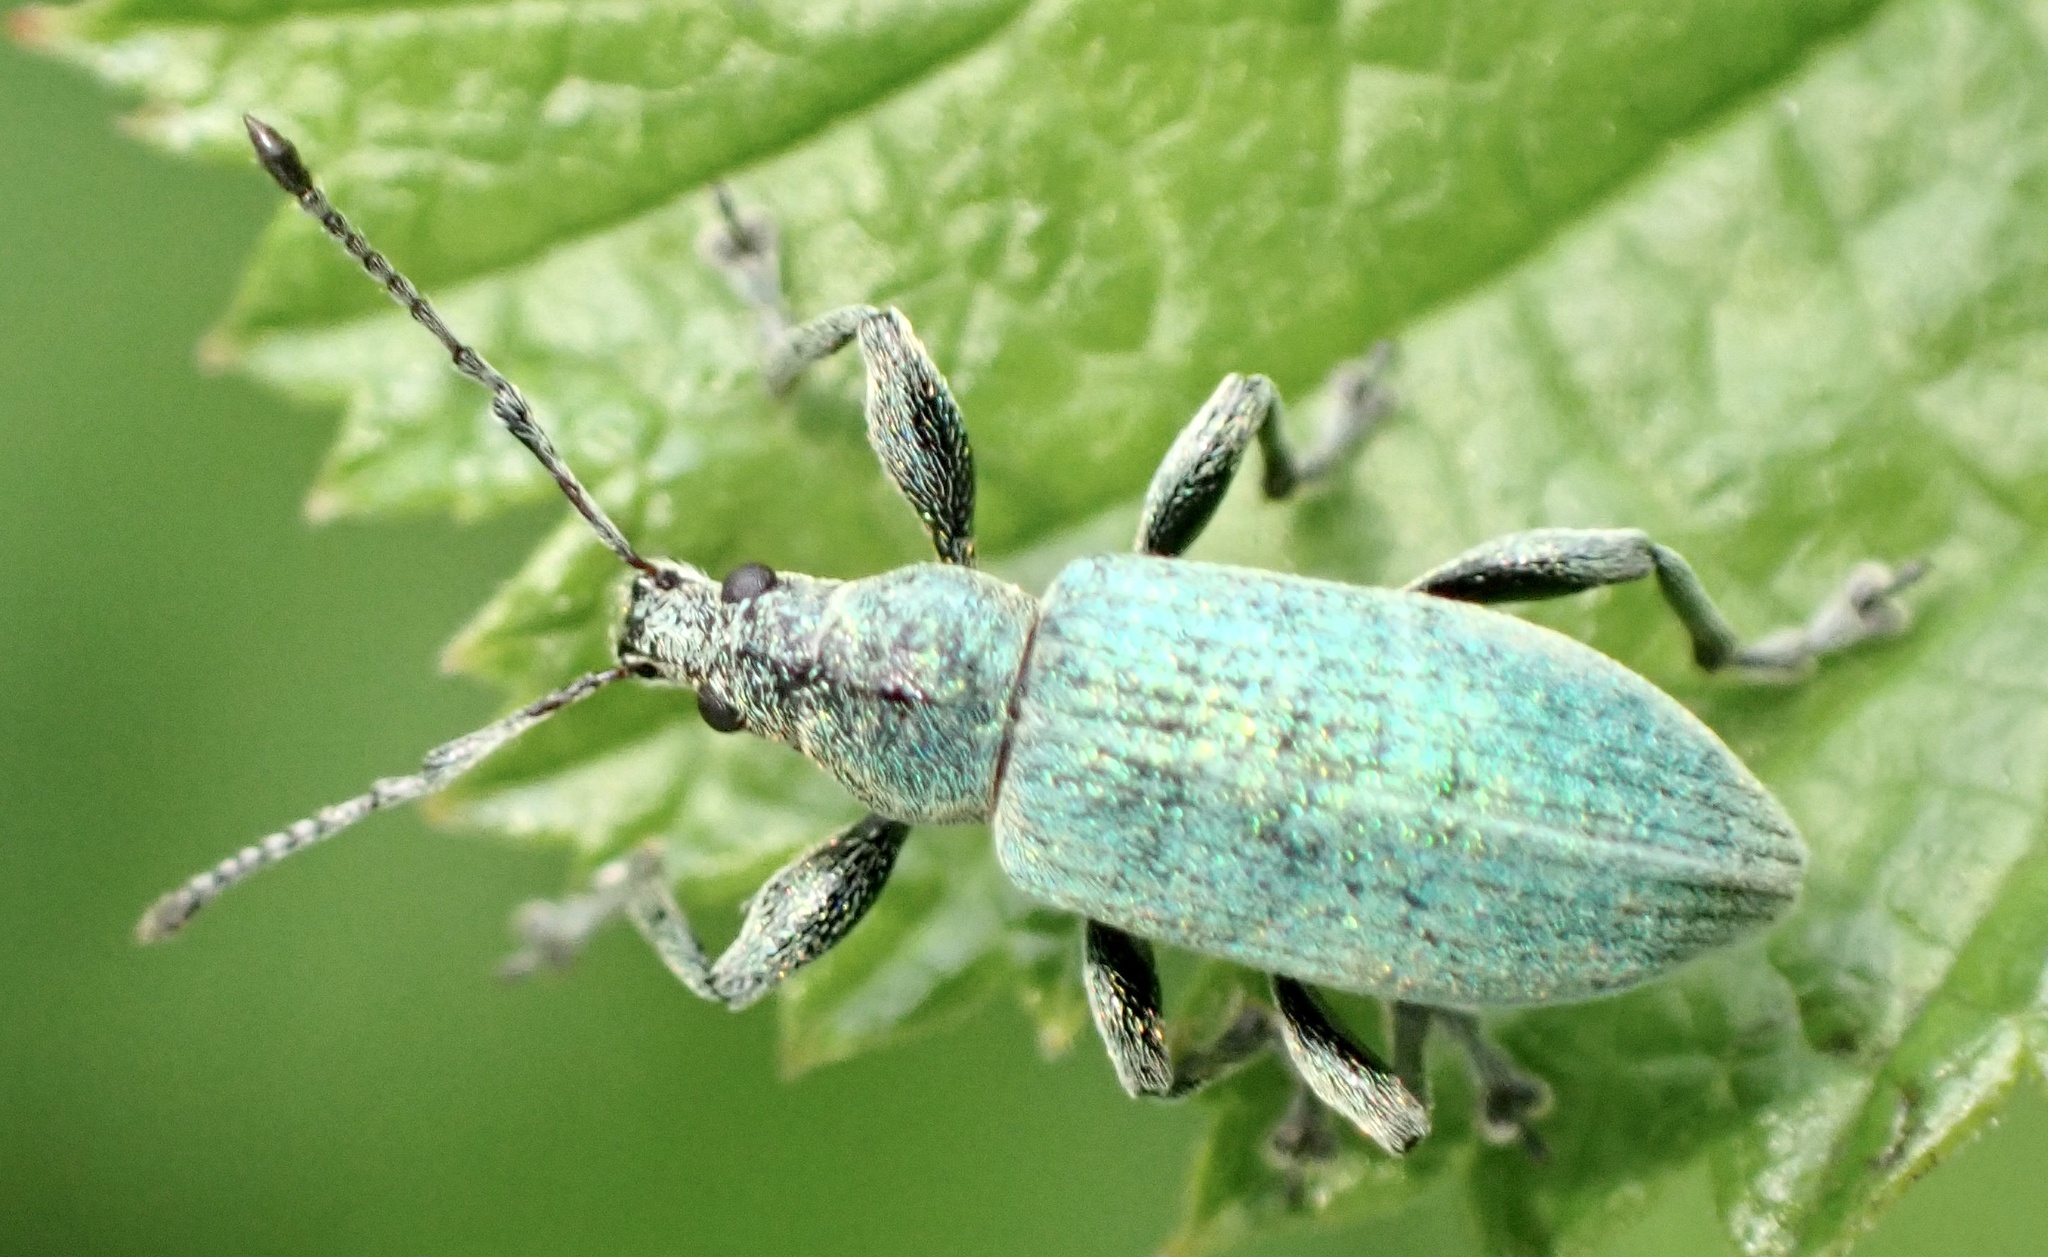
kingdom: Animalia
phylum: Arthropoda
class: Insecta
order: Coleoptera
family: Curculionidae
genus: Phyllobius
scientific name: Phyllobius pomaceus
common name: Green nettle weevil
